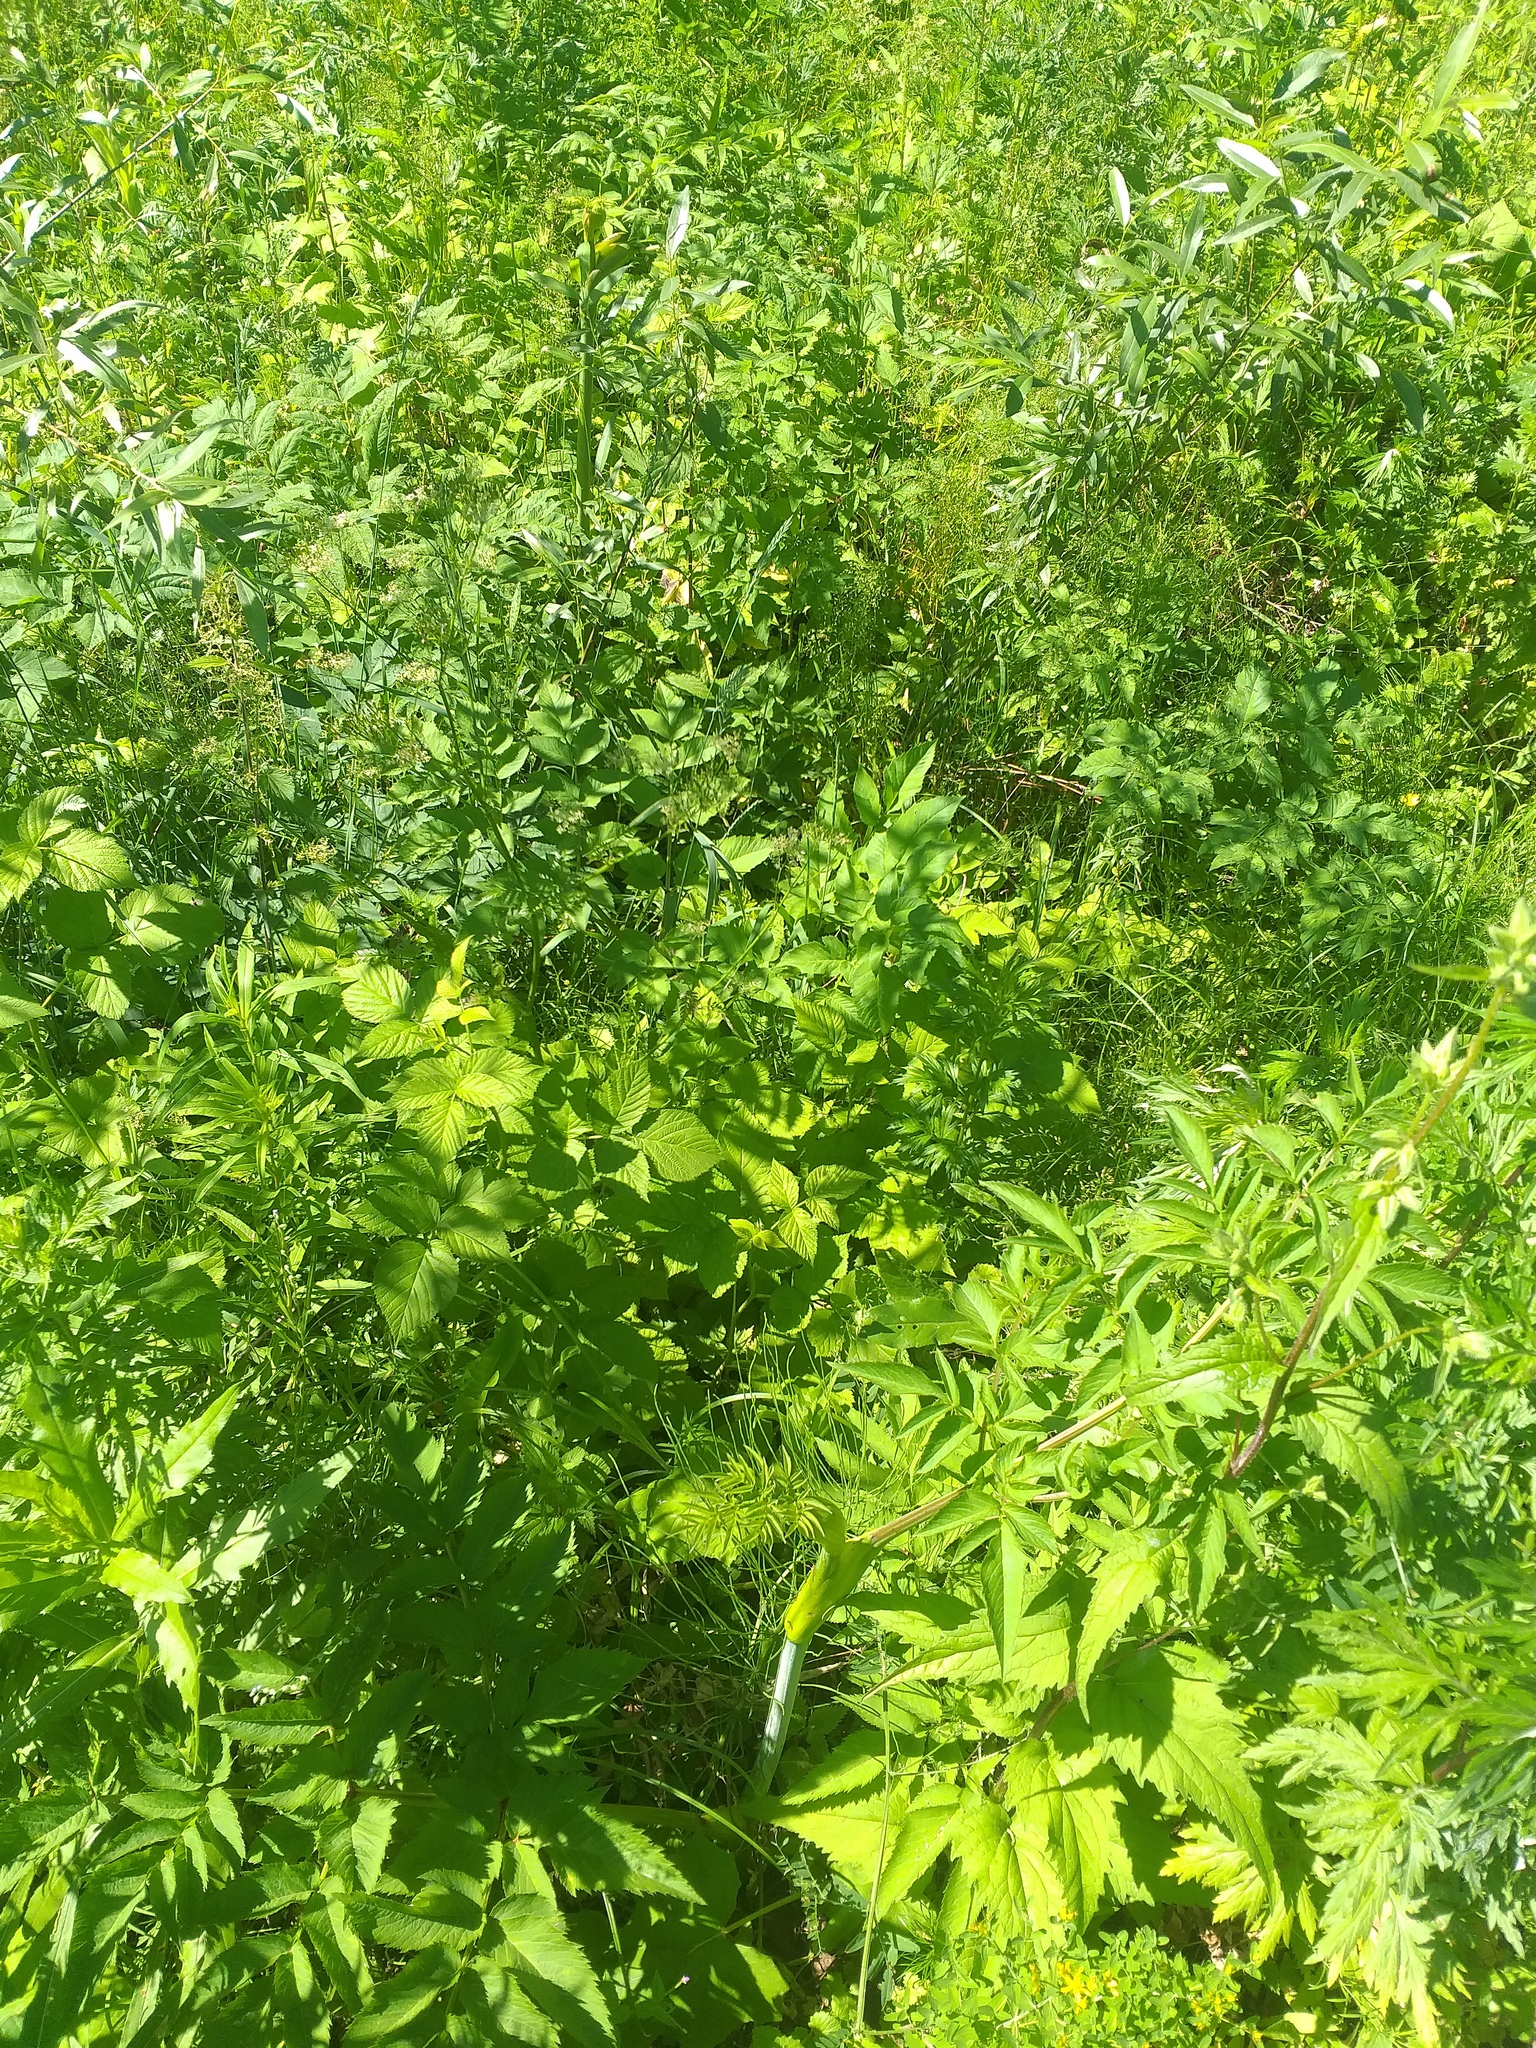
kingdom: Plantae
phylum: Tracheophyta
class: Magnoliopsida
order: Rosales
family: Rosaceae
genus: Rubus
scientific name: Rubus idaeus
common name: Raspberry
